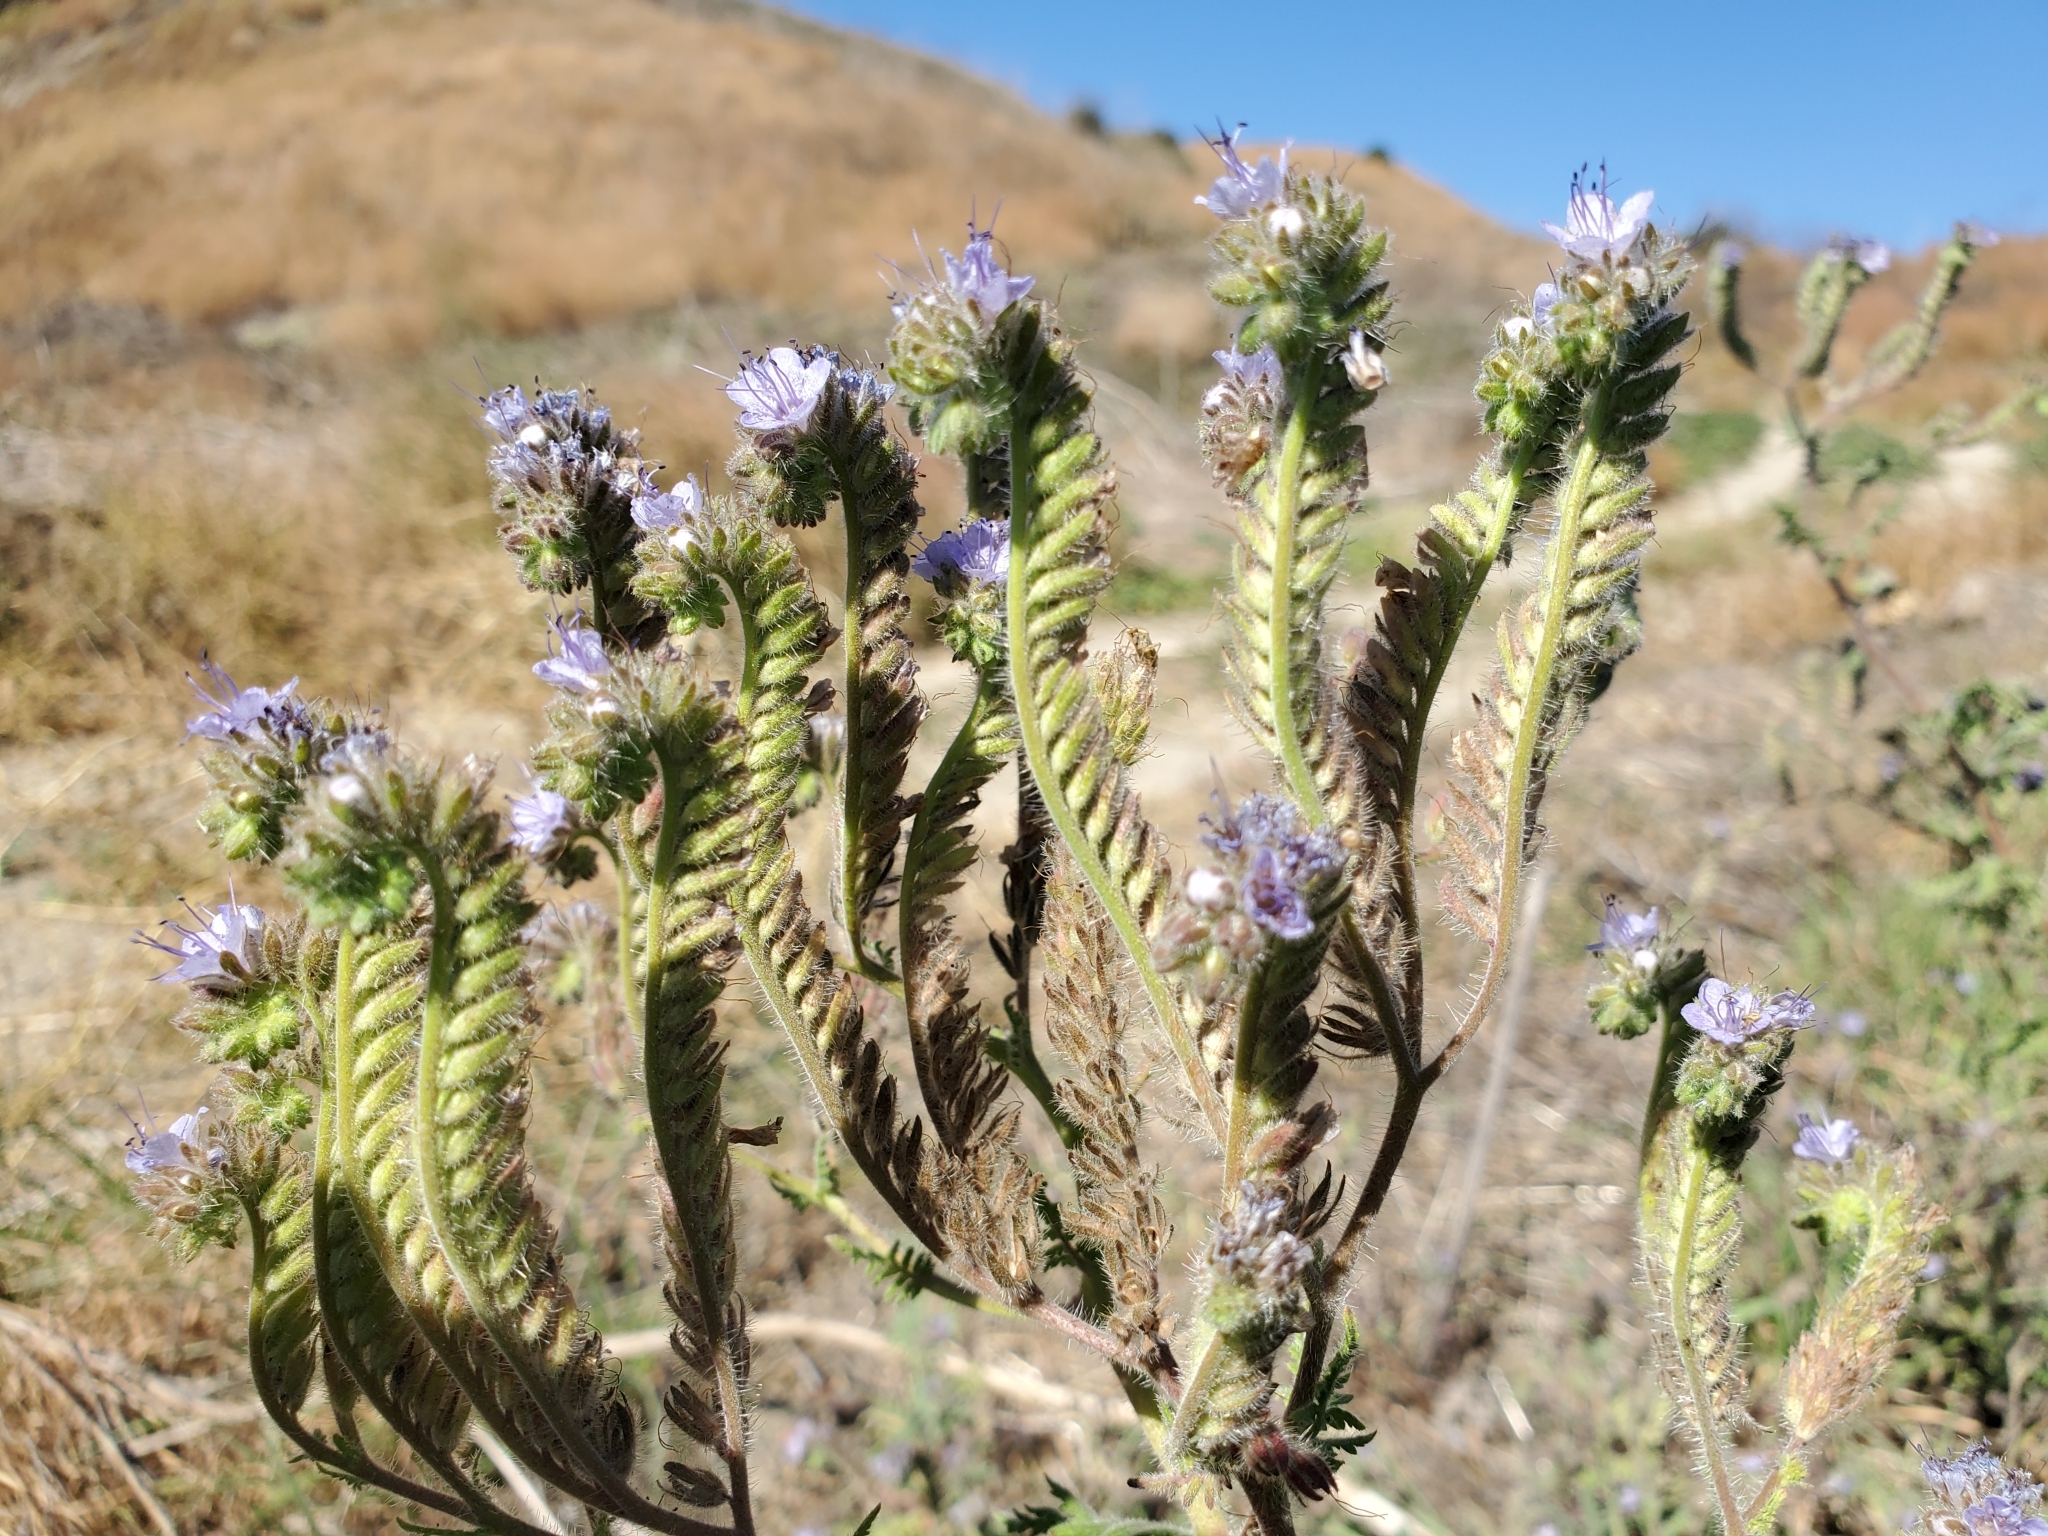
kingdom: Plantae
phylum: Tracheophyta
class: Magnoliopsida
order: Boraginales
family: Hydrophyllaceae
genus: Phacelia
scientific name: Phacelia distans
